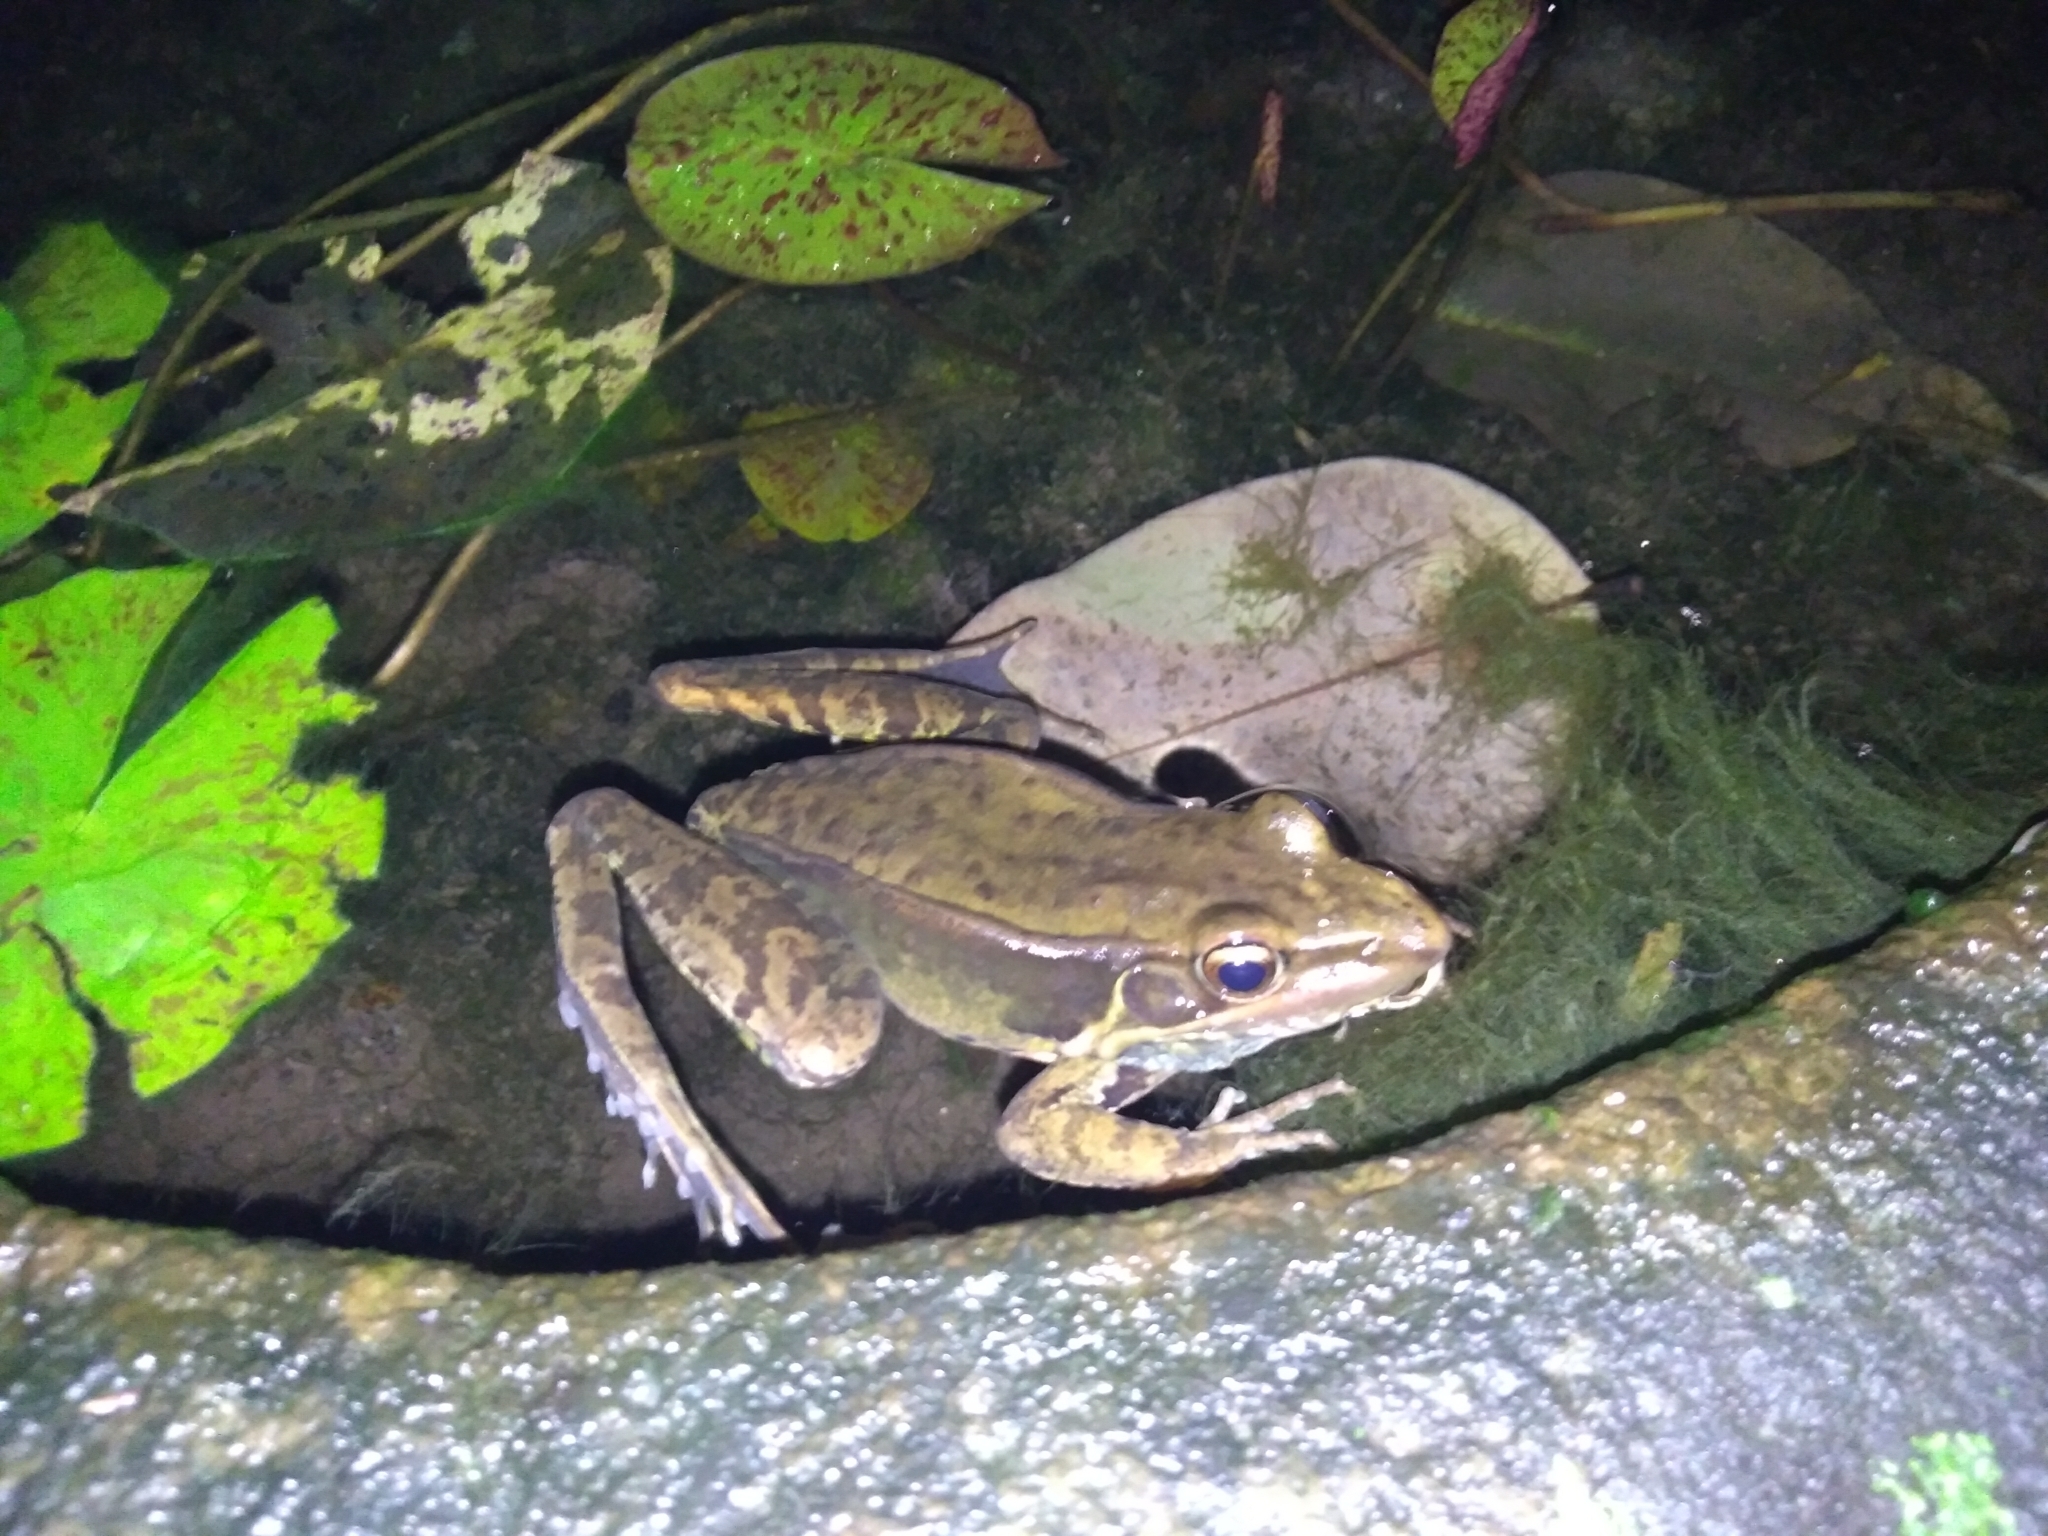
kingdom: Animalia
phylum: Chordata
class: Amphibia
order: Anura
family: Ranidae
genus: Sylvirana
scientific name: Sylvirana guentheri
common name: Guenther's amoy frog
